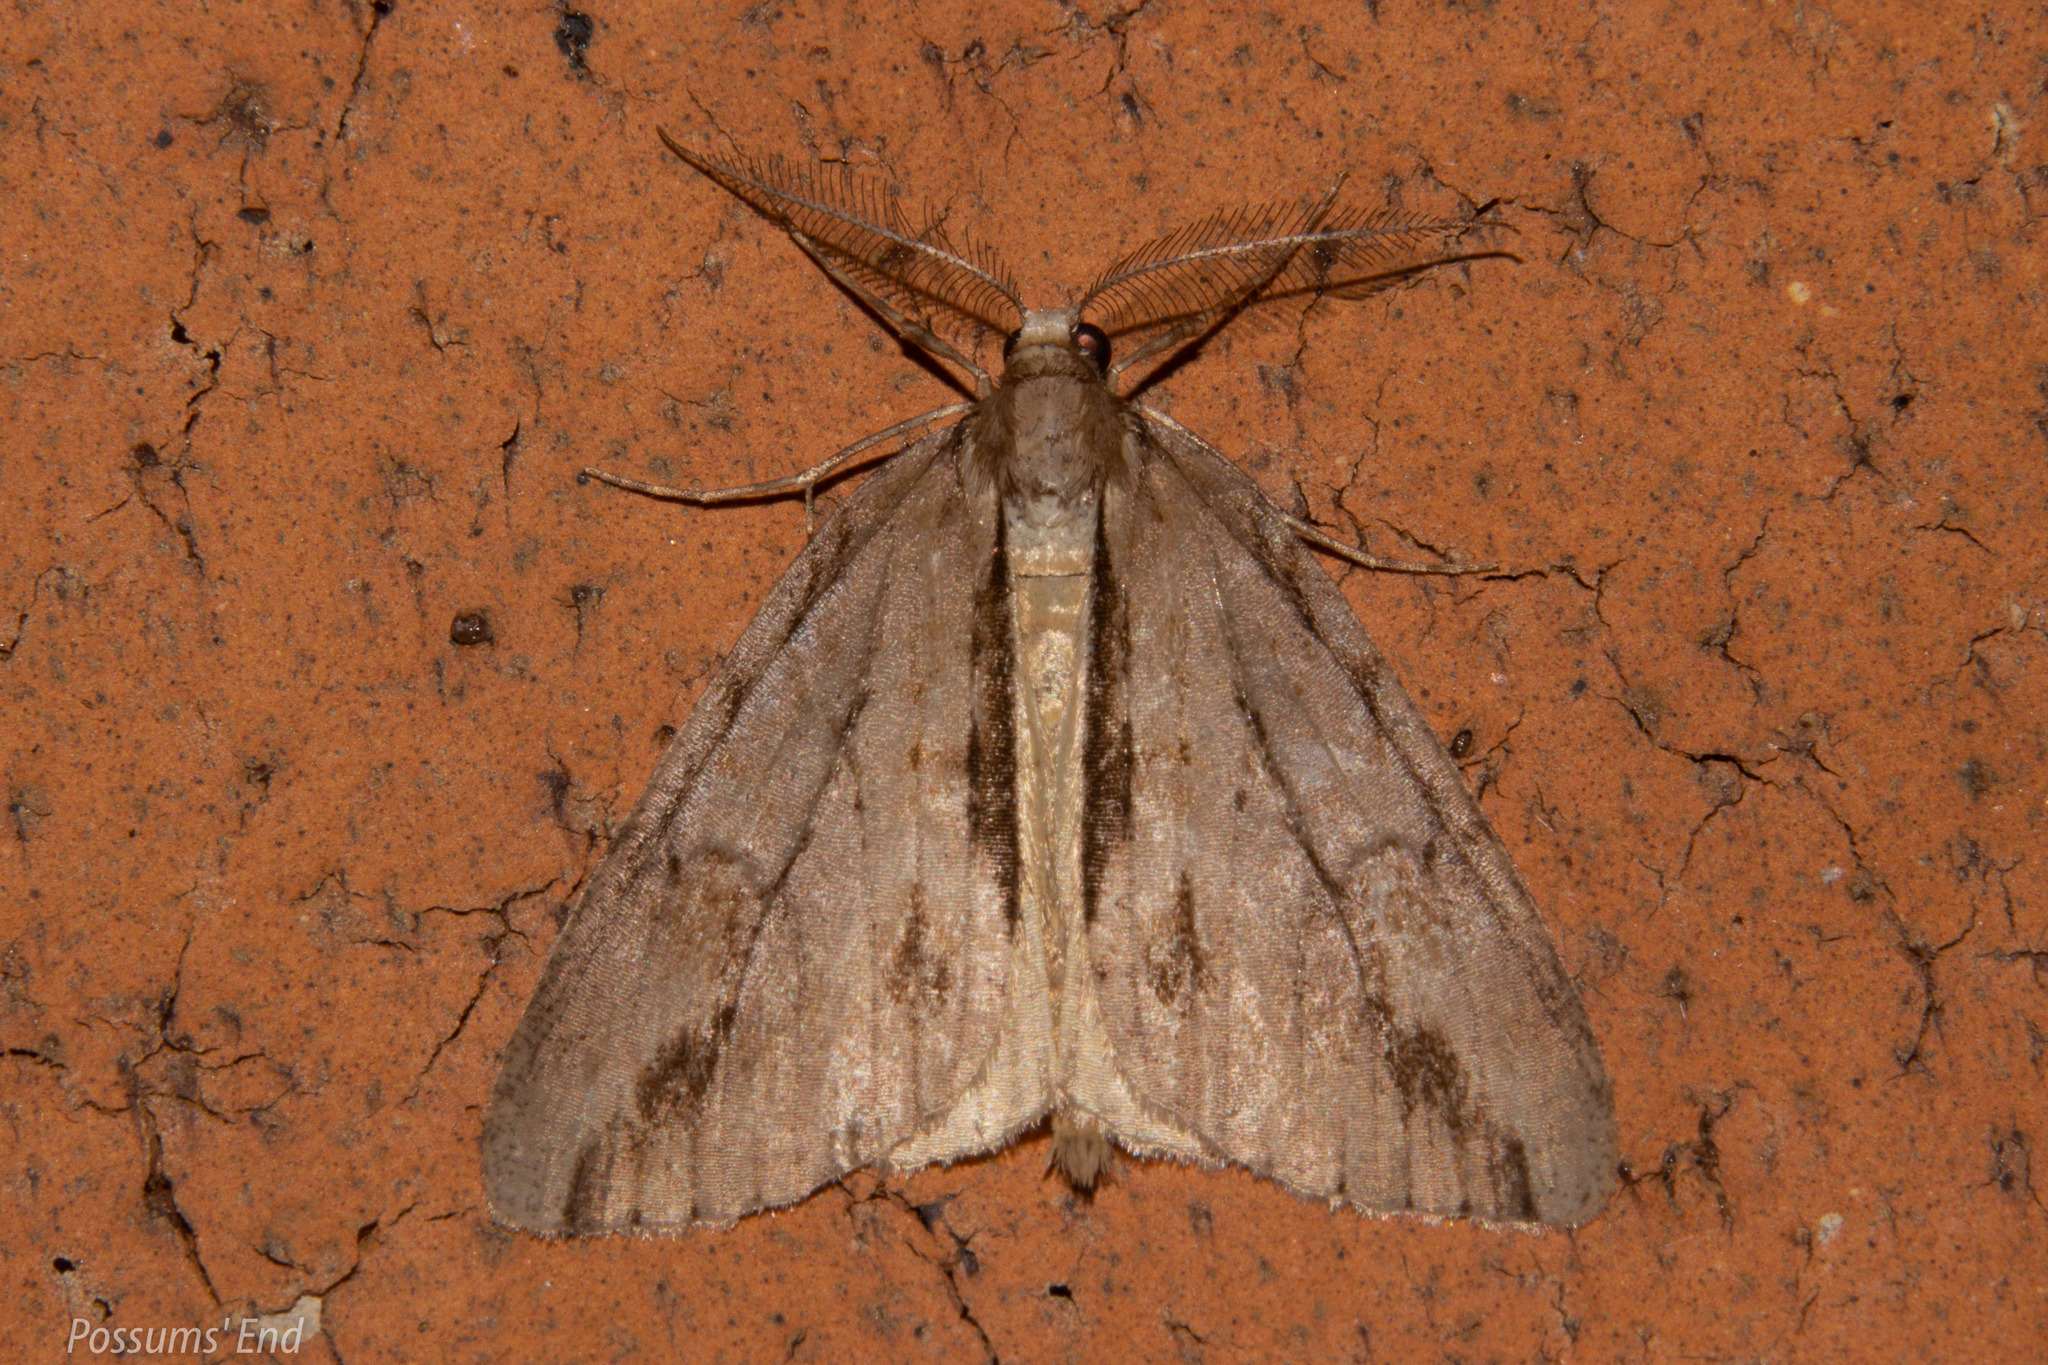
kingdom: Animalia
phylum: Arthropoda
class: Insecta
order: Lepidoptera
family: Geometridae
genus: Pseudocoremia
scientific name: Pseudocoremia lupinata
